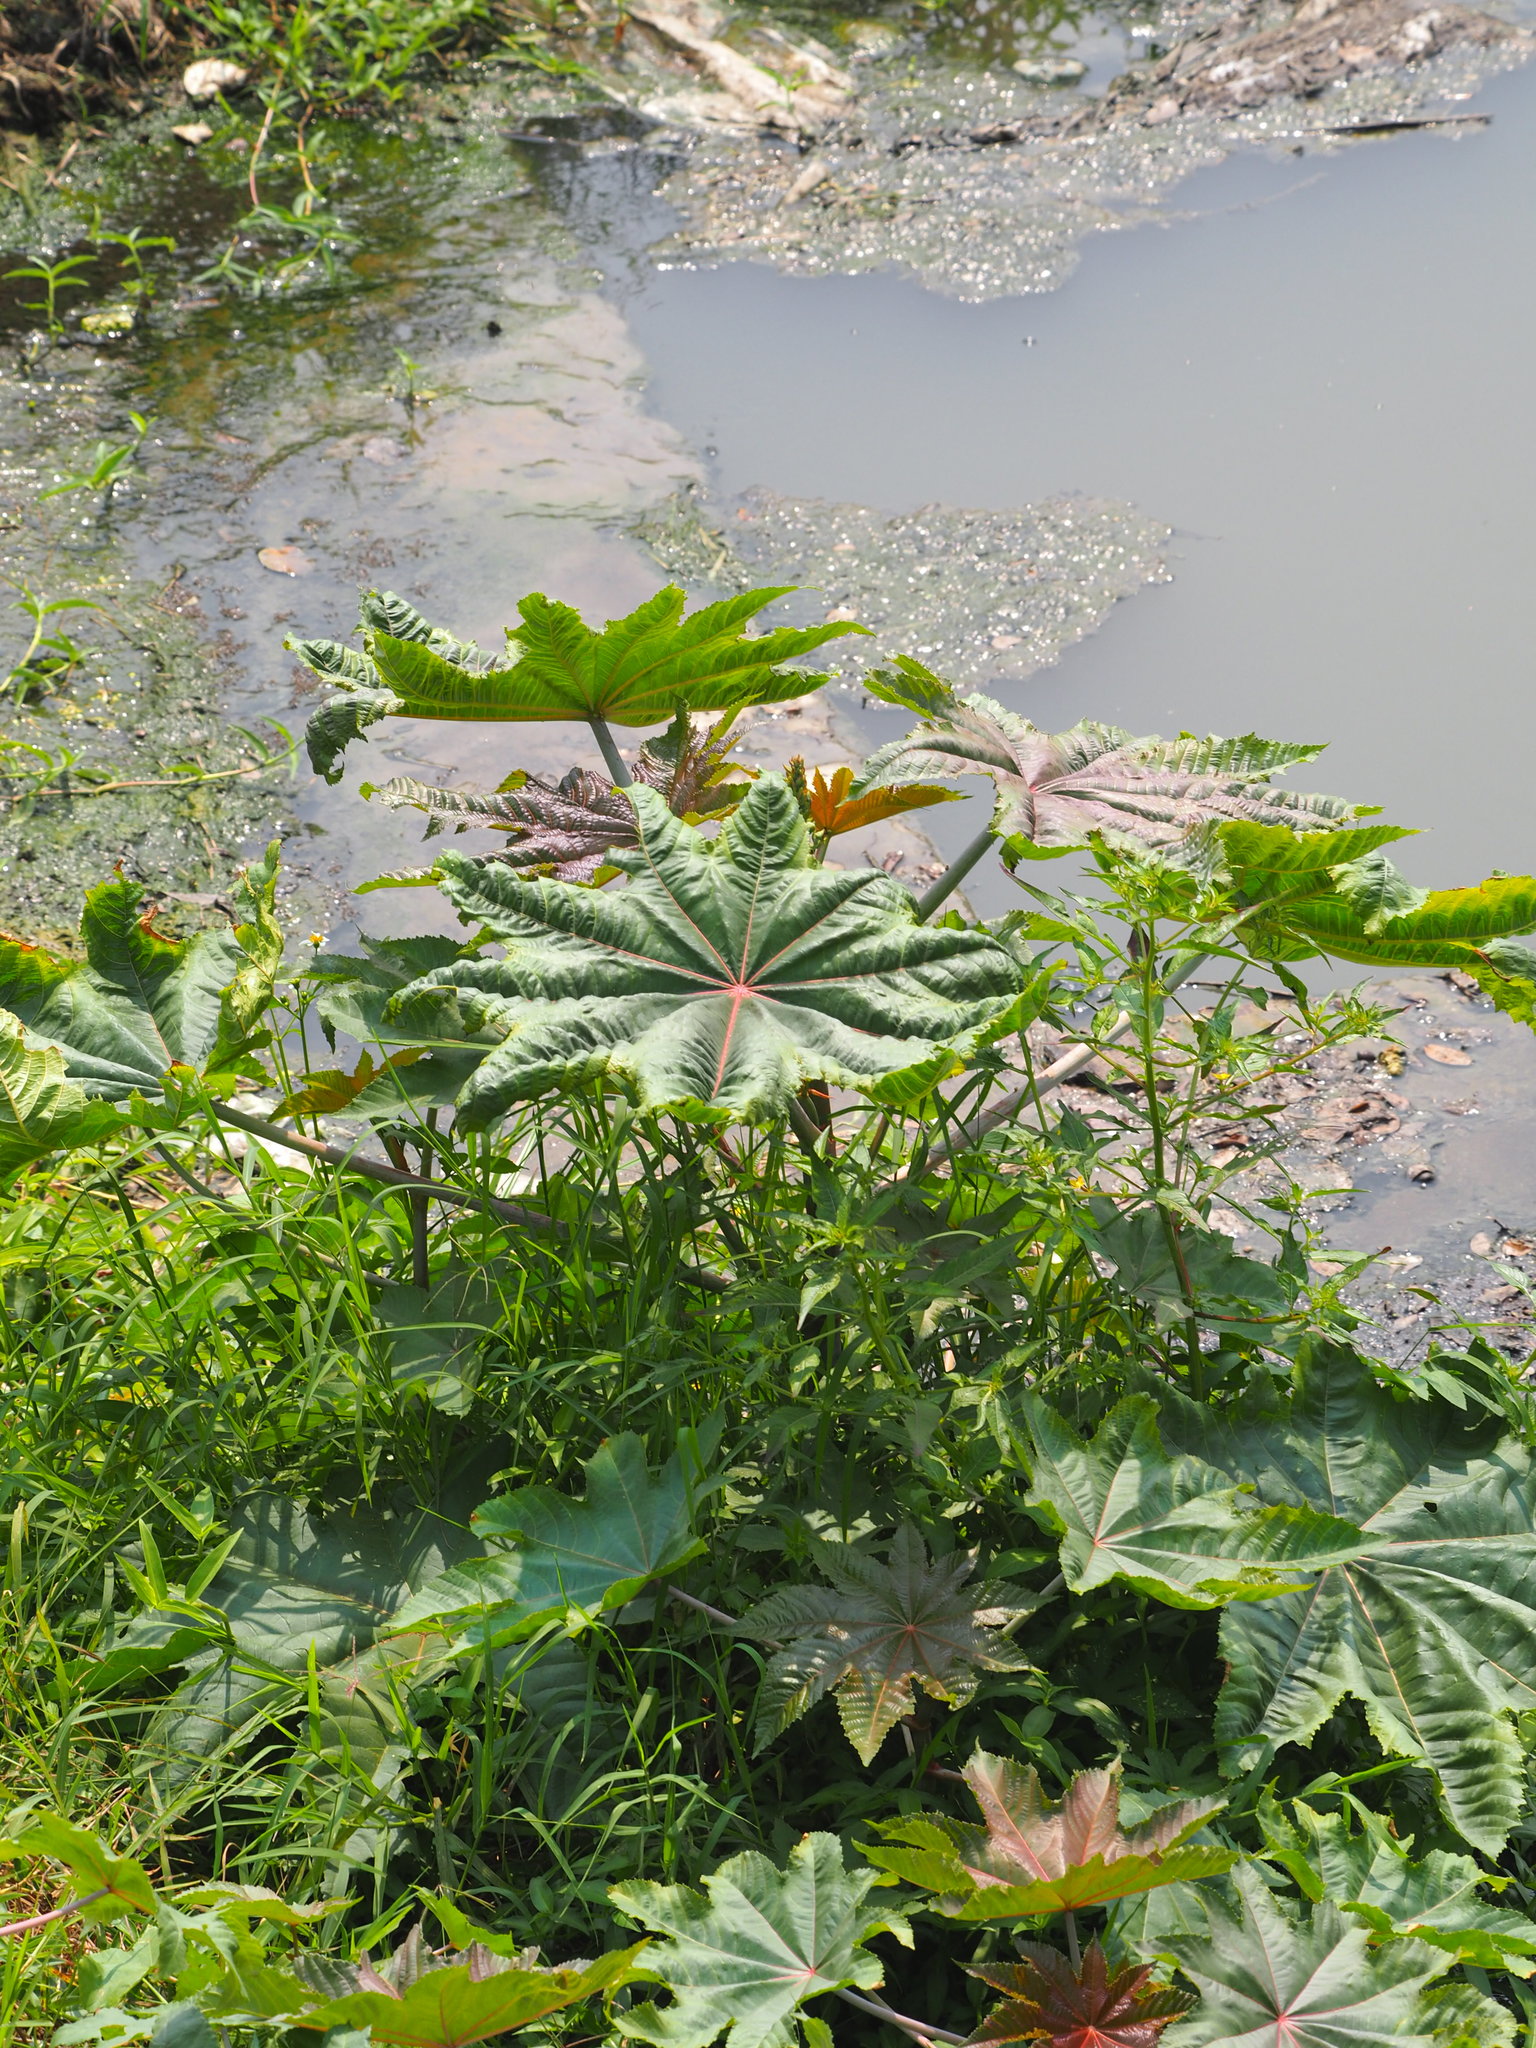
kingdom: Plantae
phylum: Tracheophyta
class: Magnoliopsida
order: Malpighiales
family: Euphorbiaceae
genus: Ricinus
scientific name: Ricinus communis
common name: Castor-oil-plant
